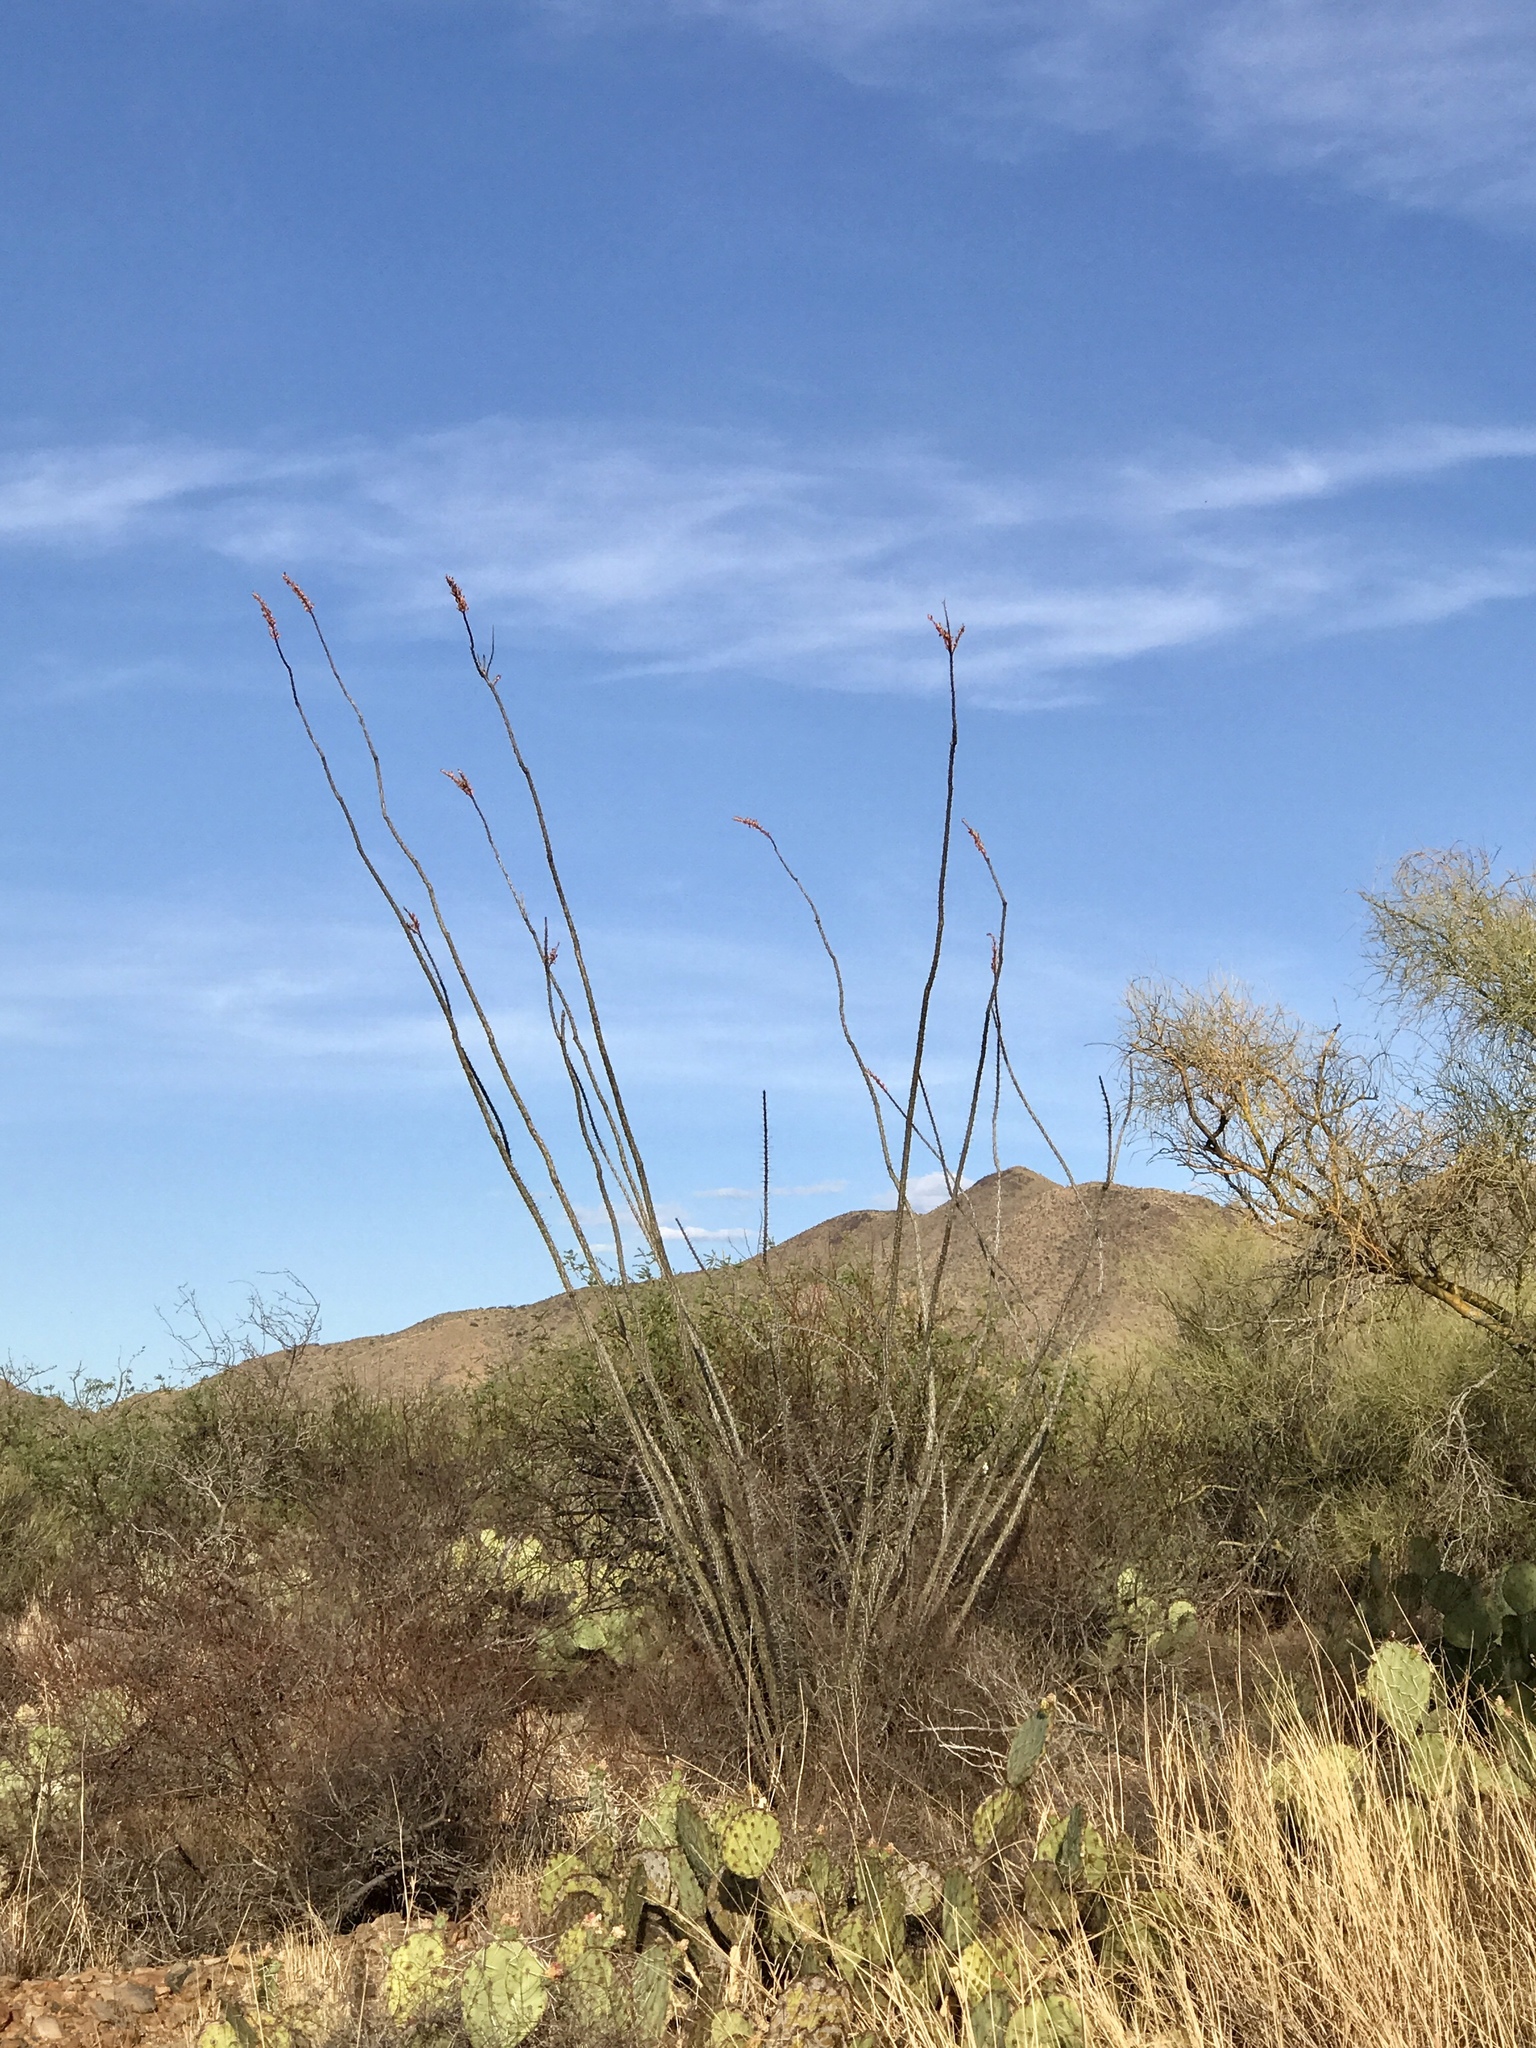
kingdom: Plantae
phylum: Tracheophyta
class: Magnoliopsida
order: Ericales
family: Fouquieriaceae
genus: Fouquieria
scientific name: Fouquieria splendens
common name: Vine-cactus
